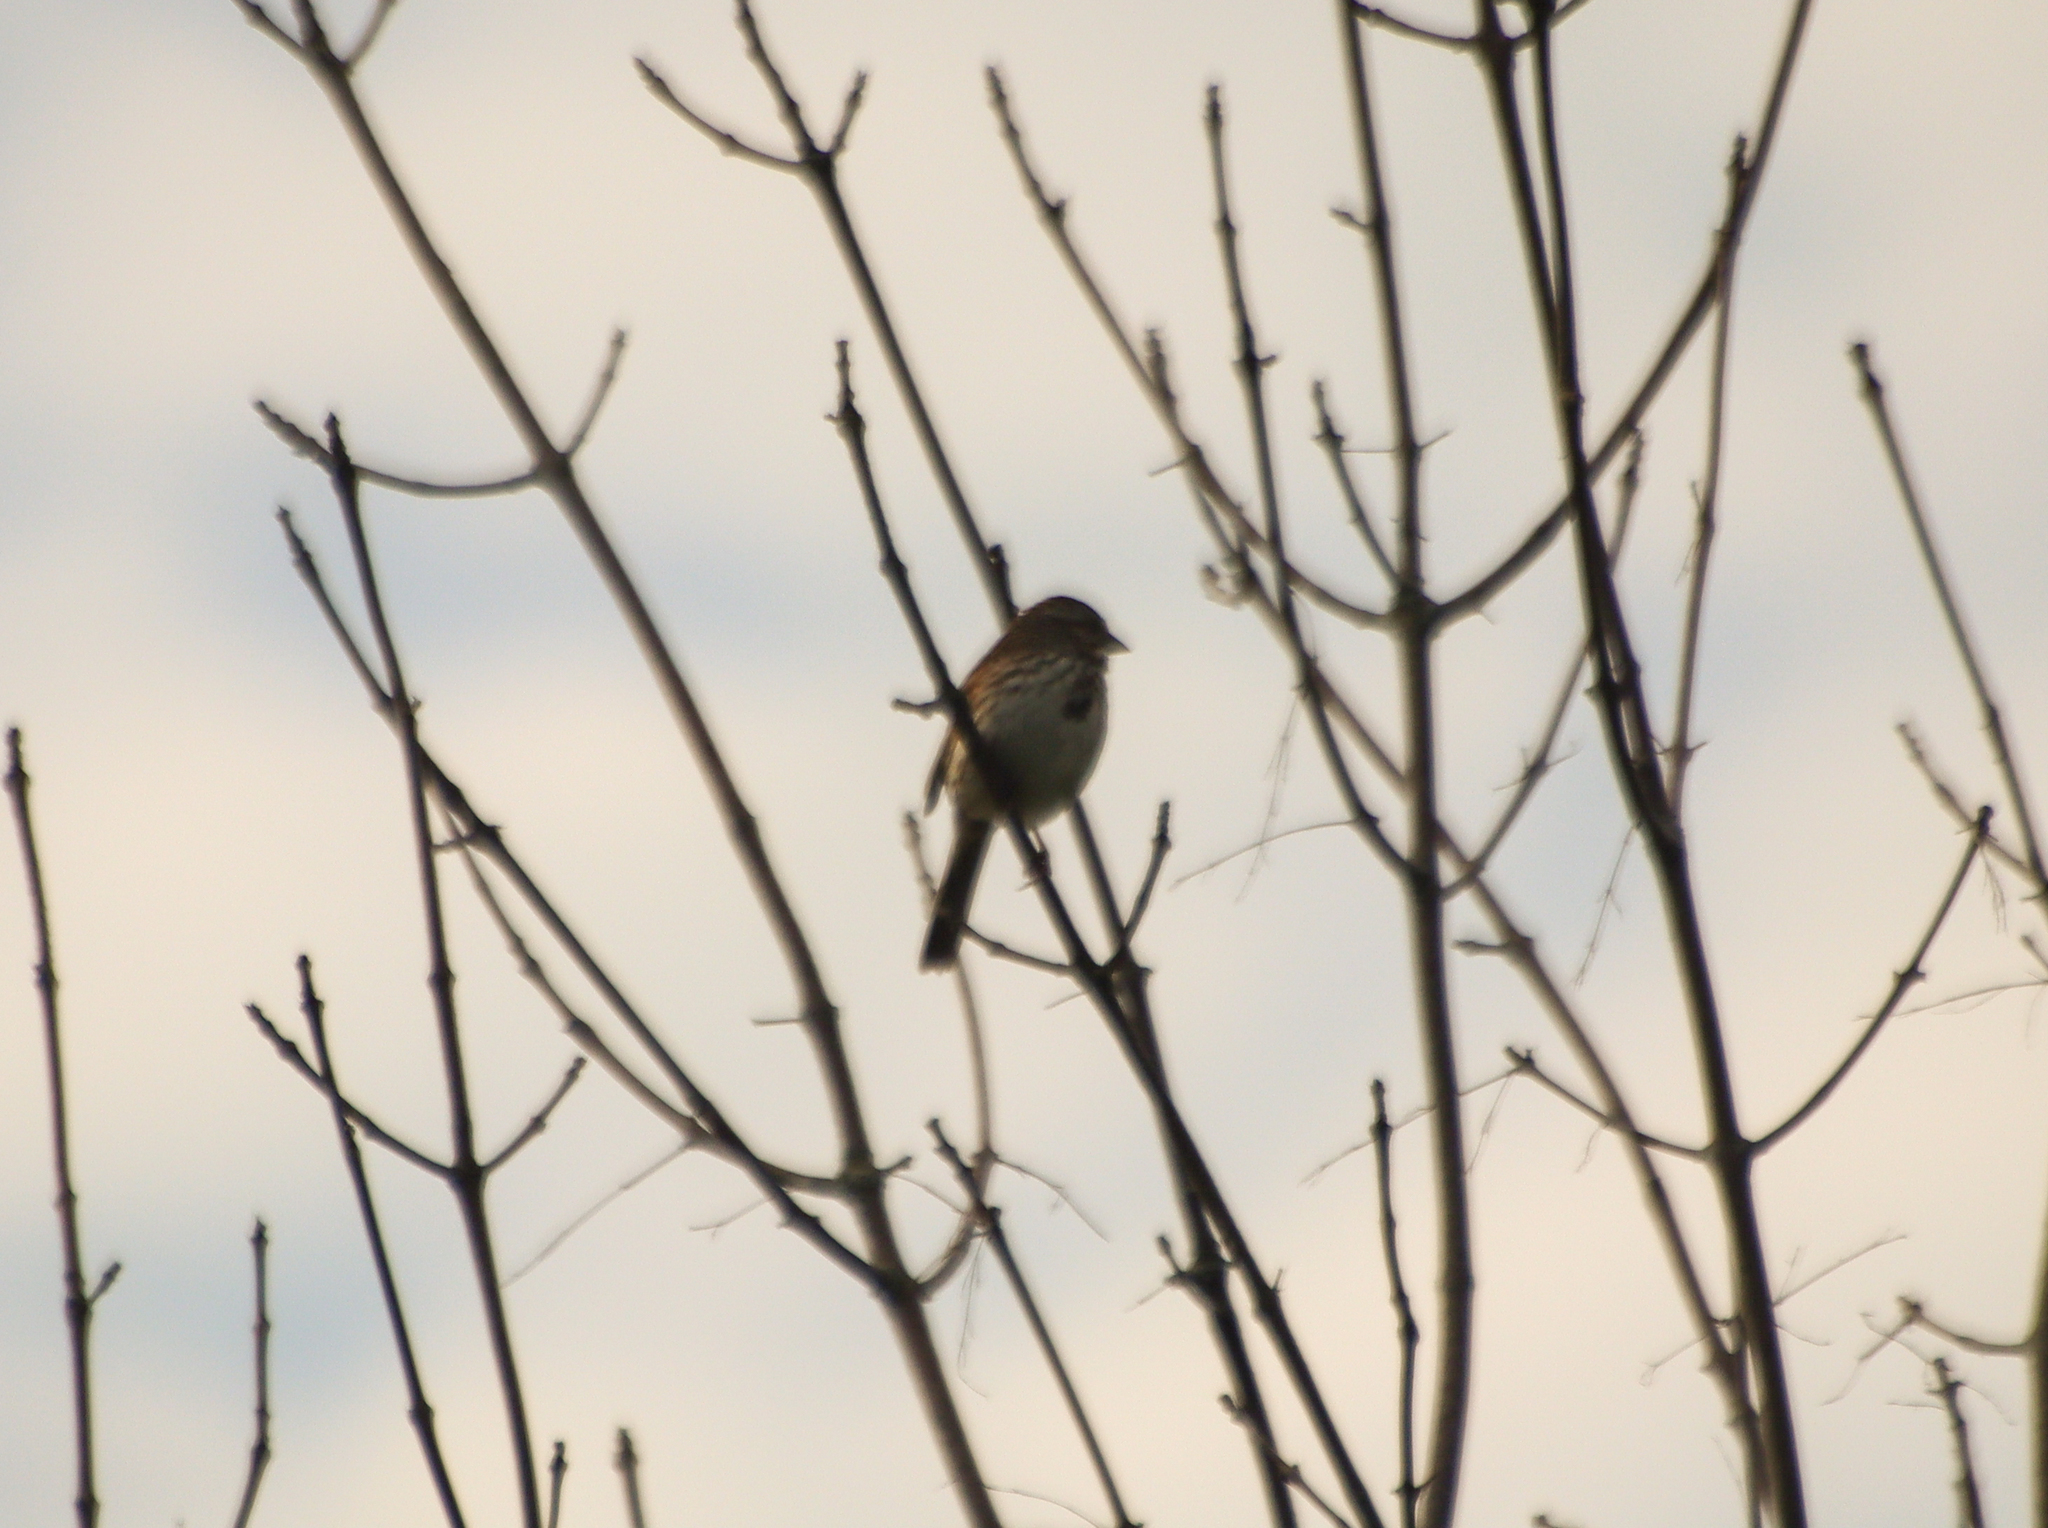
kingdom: Animalia
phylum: Chordata
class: Aves
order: Passeriformes
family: Passerellidae
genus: Melospiza
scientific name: Melospiza melodia
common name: Song sparrow
